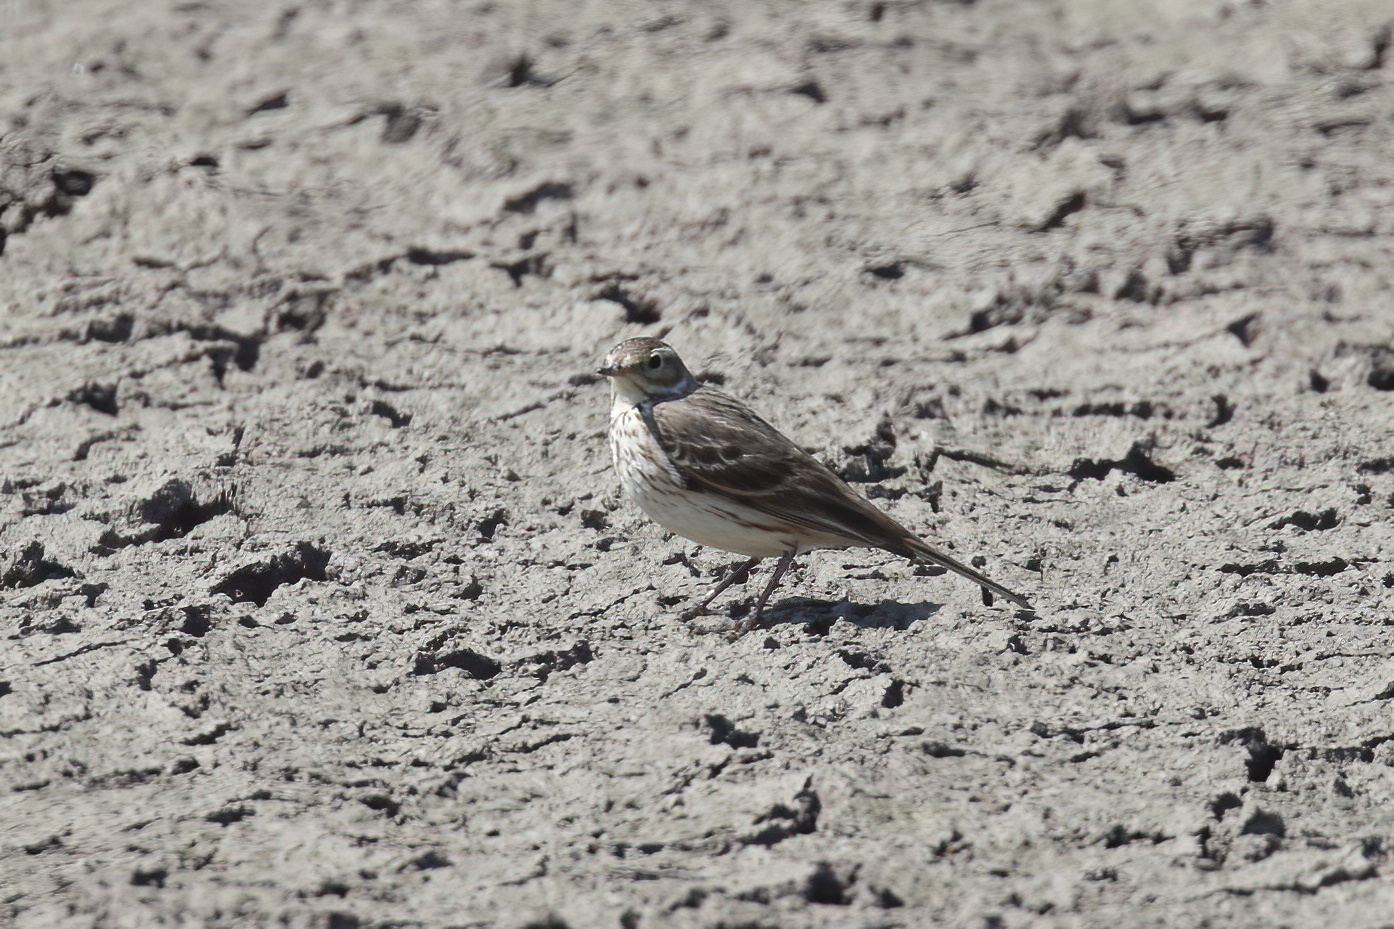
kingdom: Animalia
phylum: Chordata
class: Aves
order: Passeriformes
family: Motacillidae
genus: Anthus
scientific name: Anthus rubescens
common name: Buff-bellied pipit
